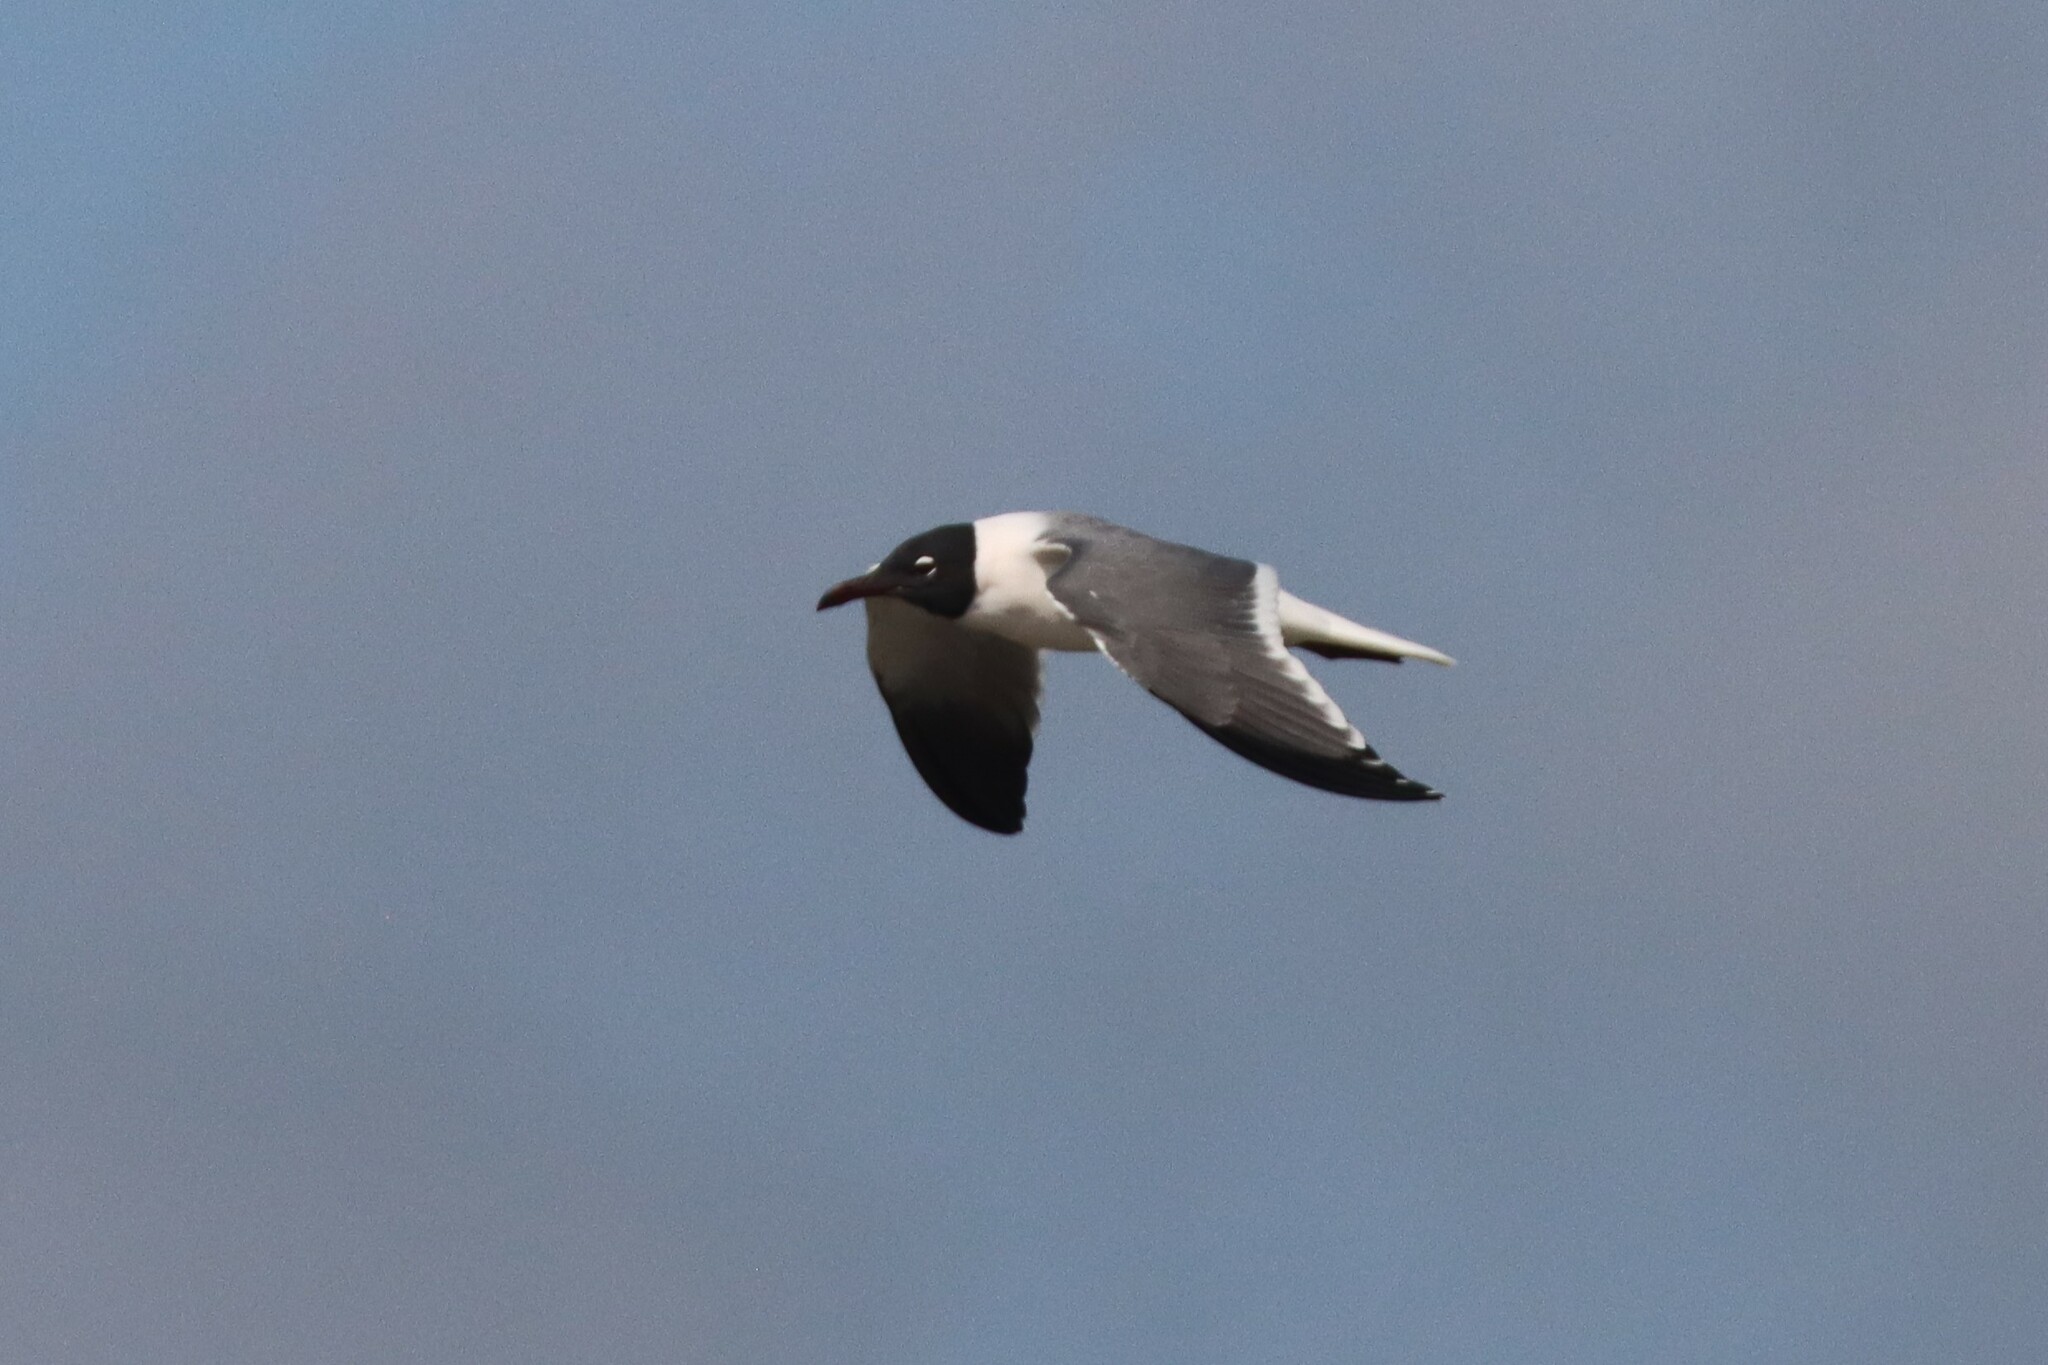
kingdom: Animalia
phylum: Chordata
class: Aves
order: Charadriiformes
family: Laridae
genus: Leucophaeus
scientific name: Leucophaeus atricilla
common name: Laughing gull
